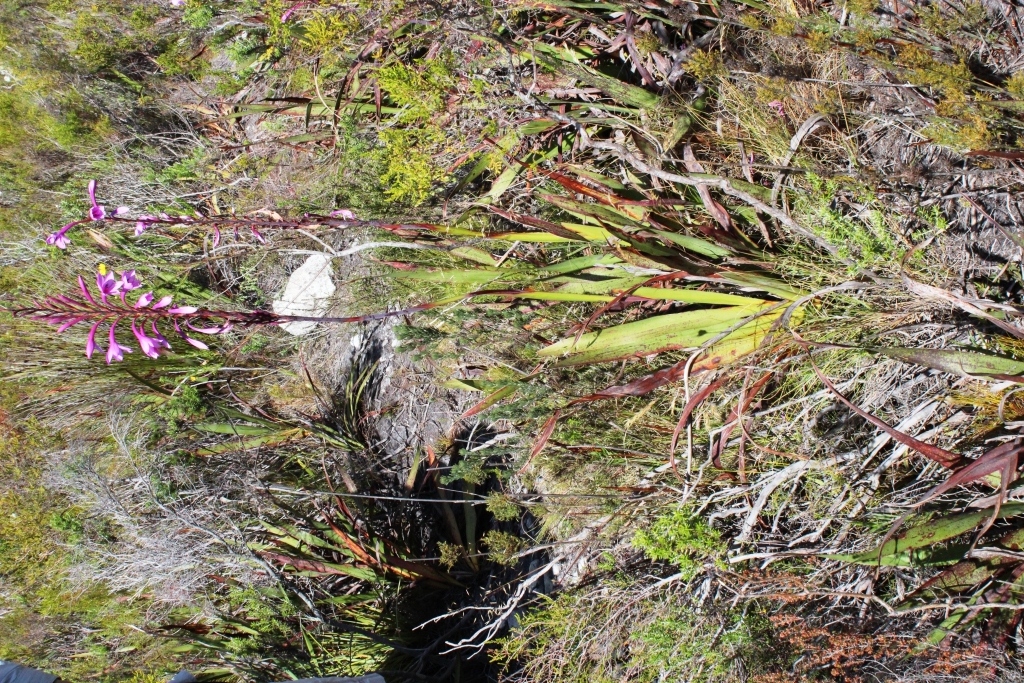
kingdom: Plantae
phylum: Tracheophyta
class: Liliopsida
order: Asparagales
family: Iridaceae
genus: Watsonia
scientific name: Watsonia fourcadei
